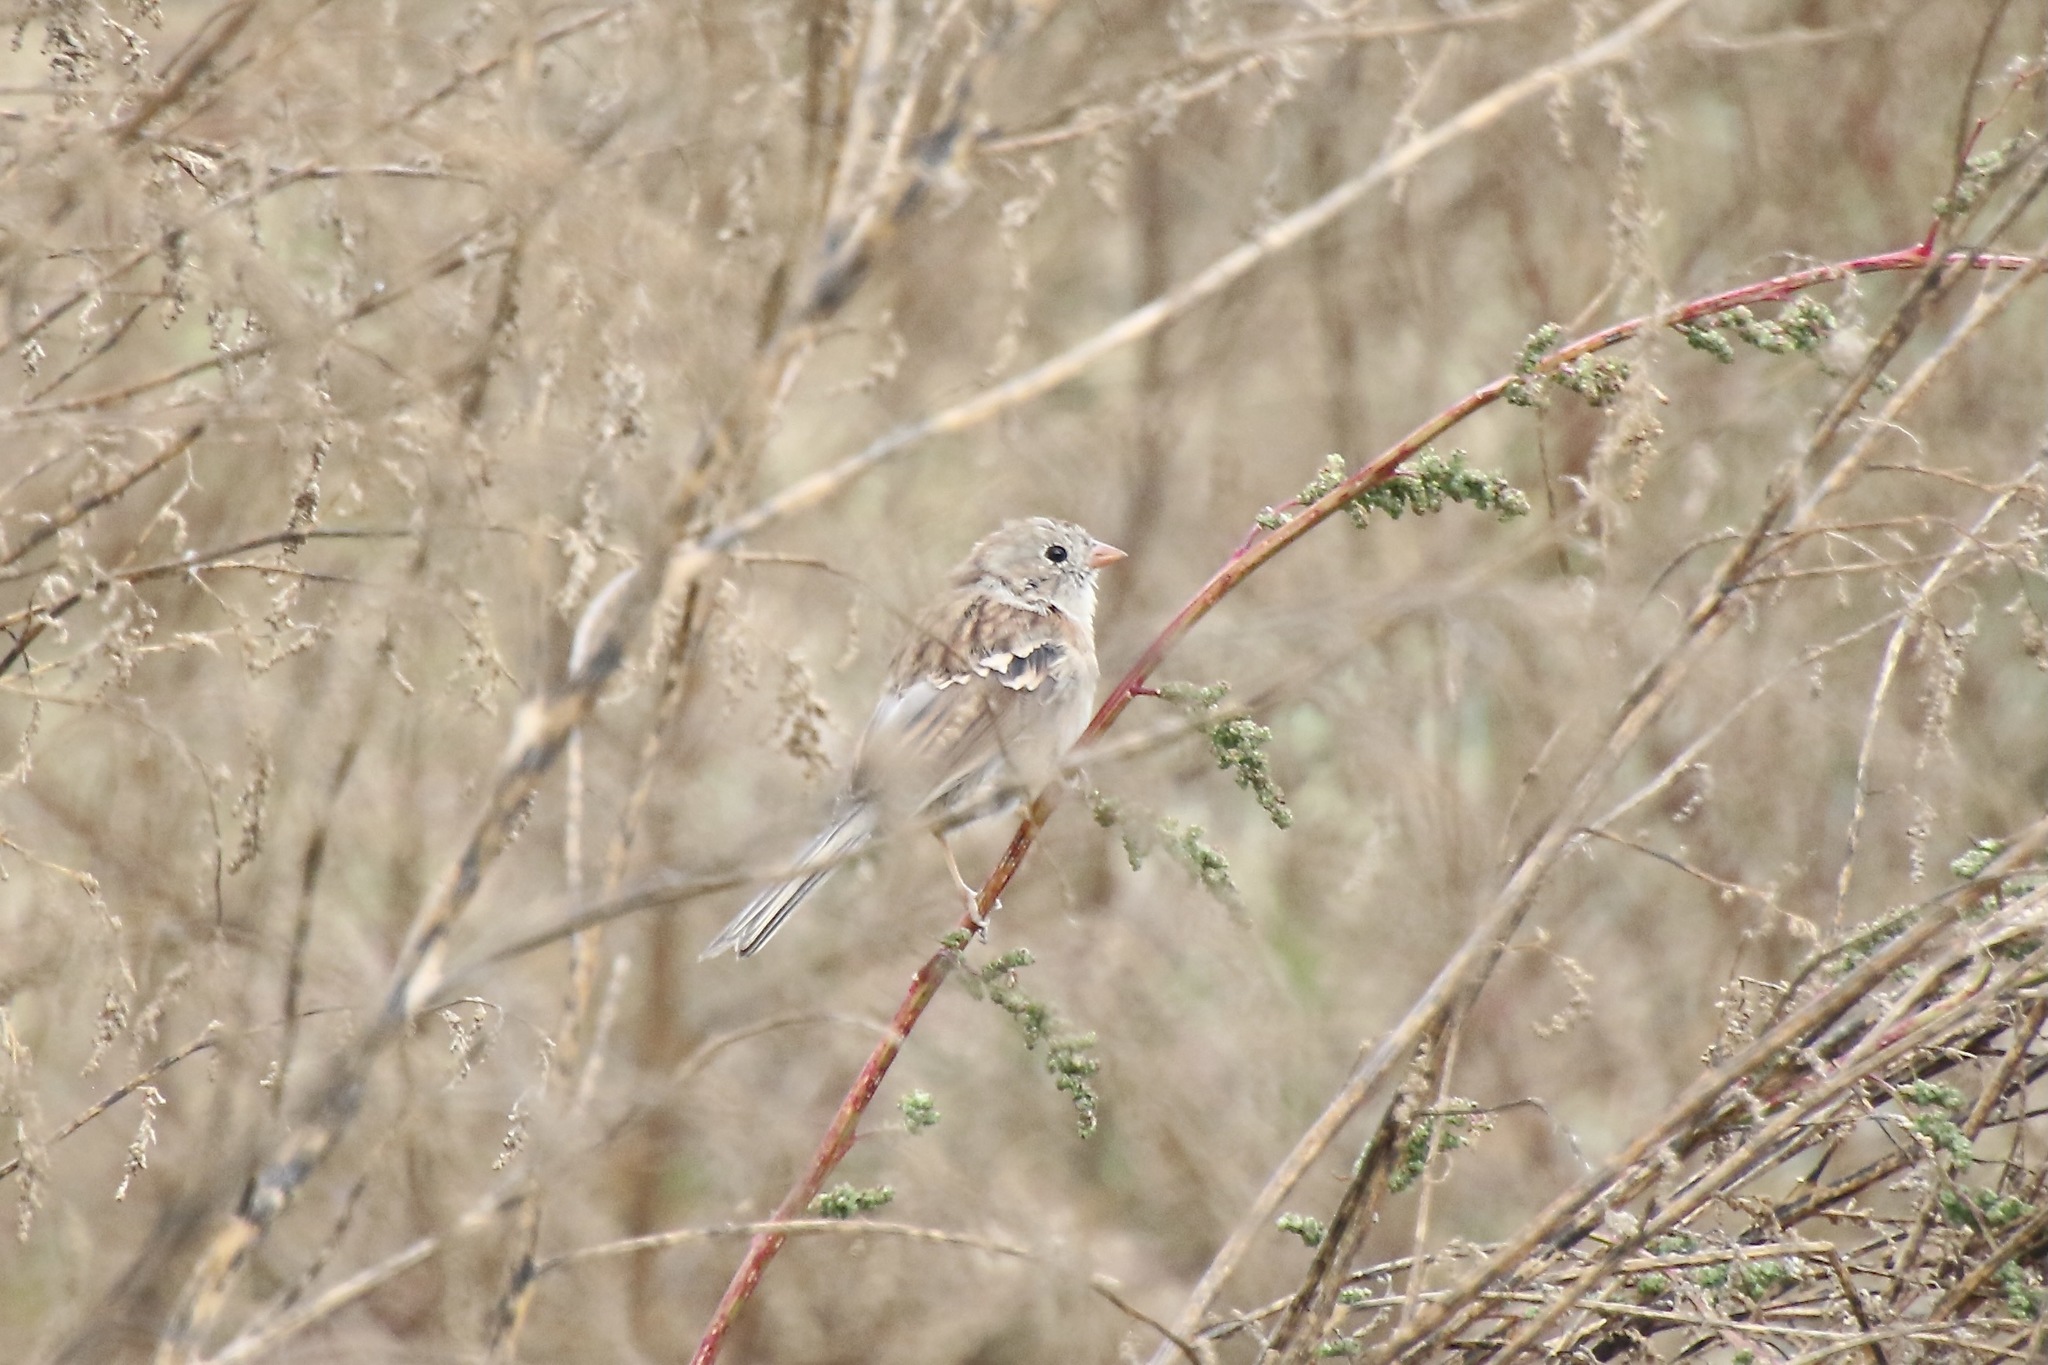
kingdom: Animalia
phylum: Chordata
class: Aves
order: Passeriformes
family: Passerellidae
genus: Spizella
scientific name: Spizella pusilla
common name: Field sparrow
